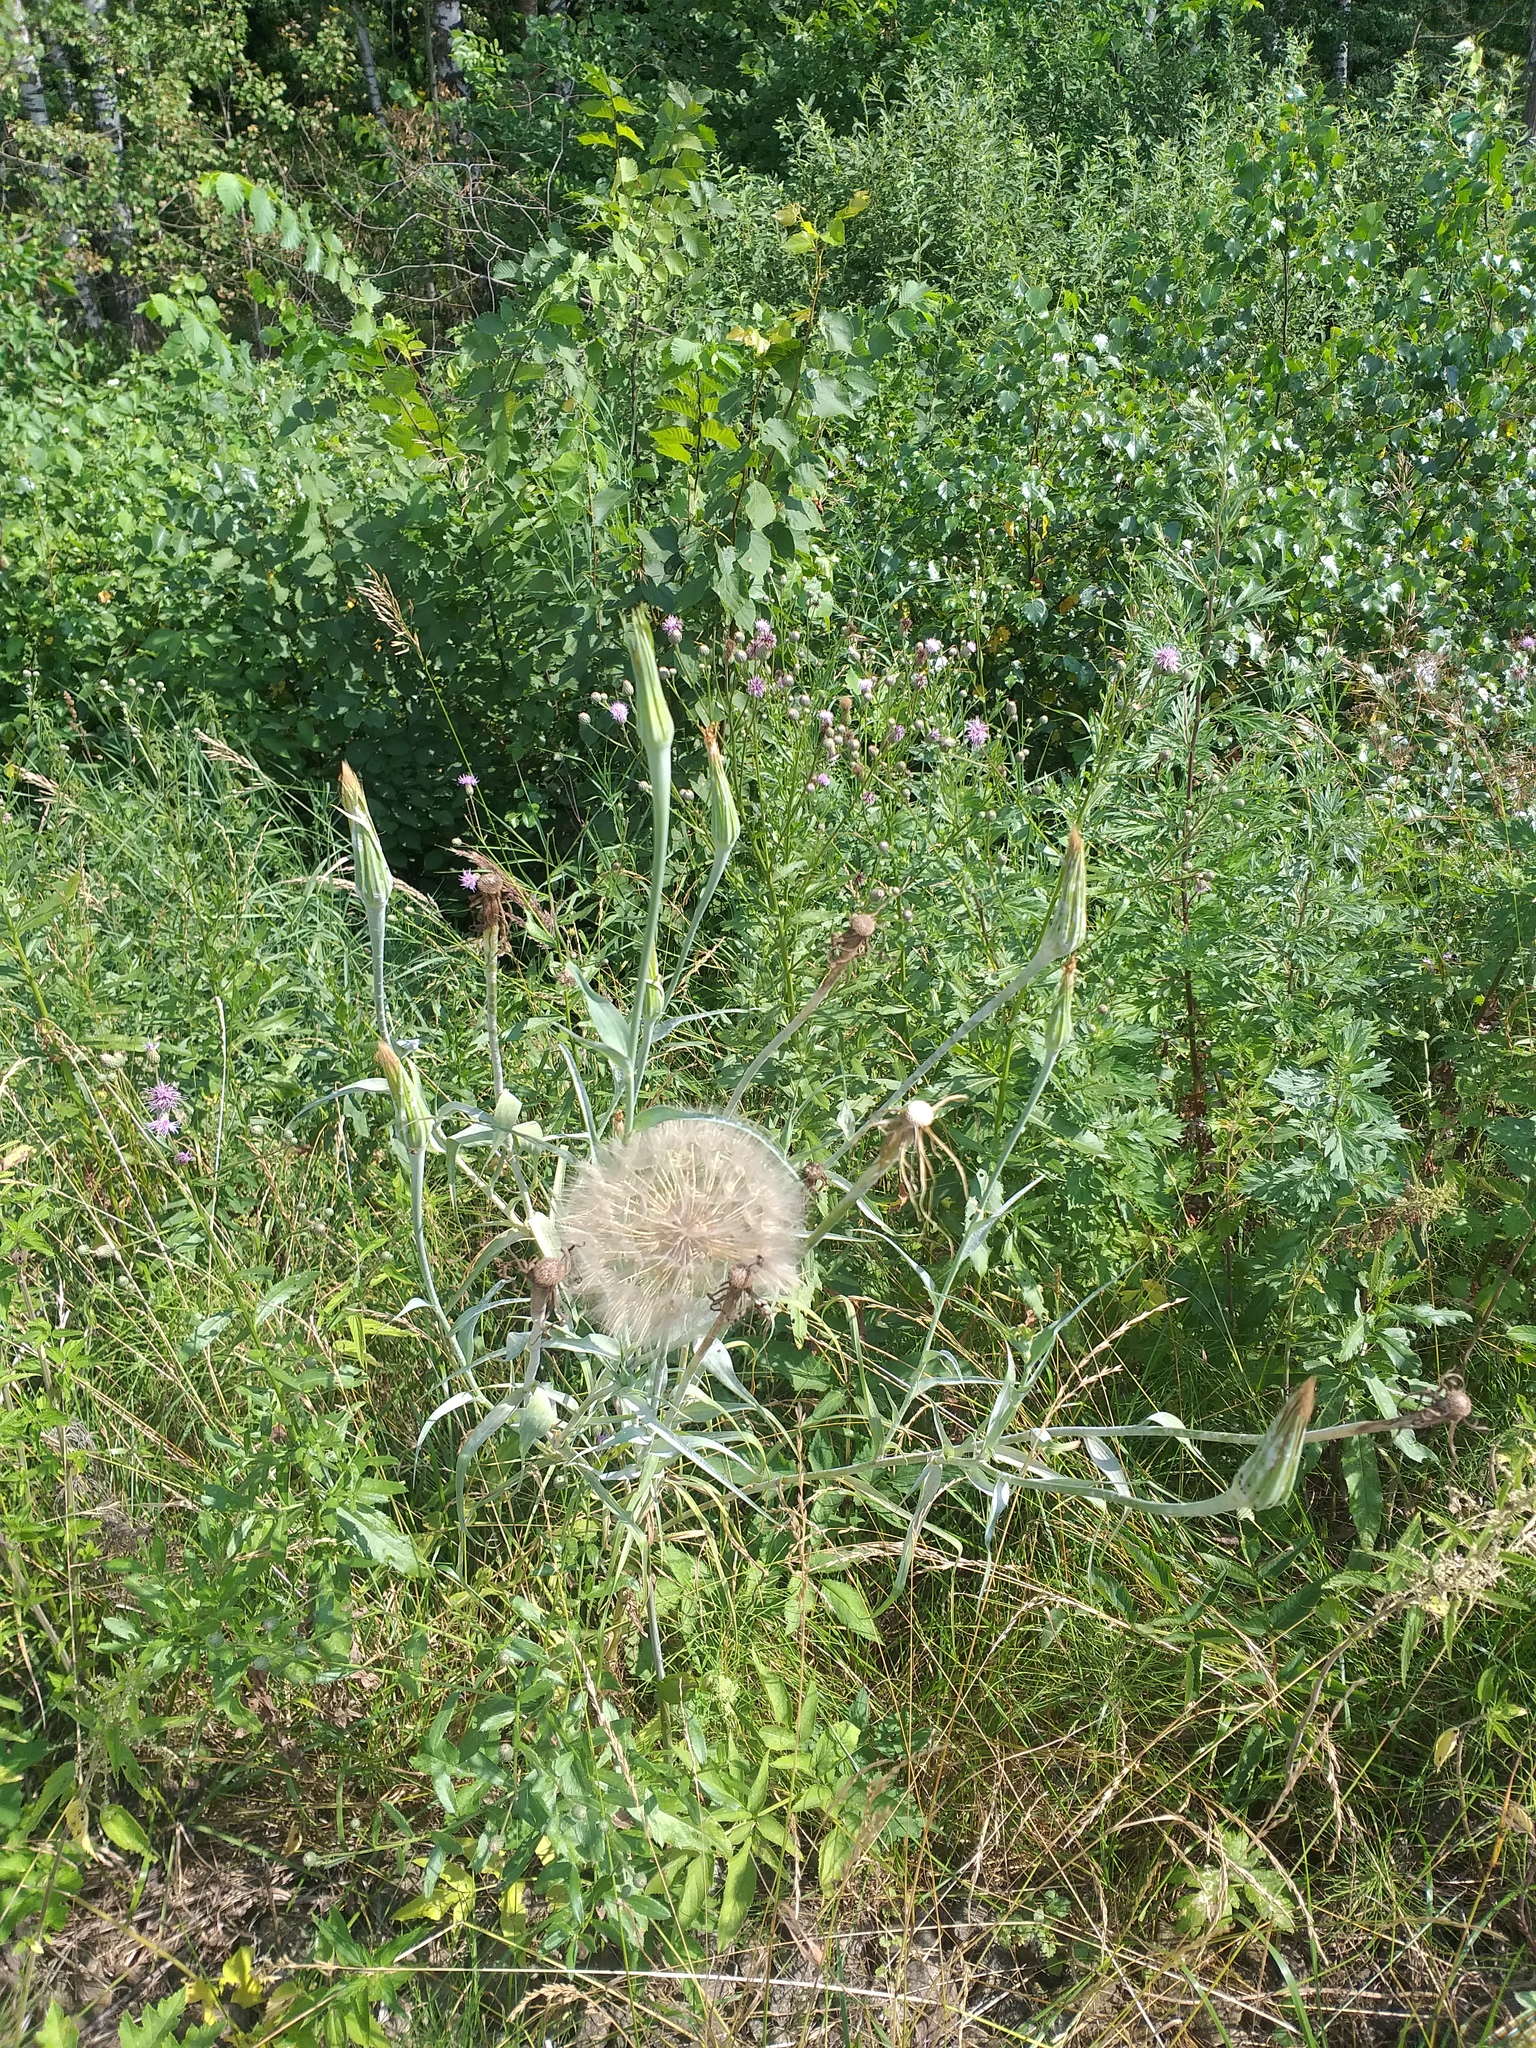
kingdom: Plantae
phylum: Tracheophyta
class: Magnoliopsida
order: Asterales
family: Asteraceae
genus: Tragopogon
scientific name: Tragopogon dubius
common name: Yellow salsify
